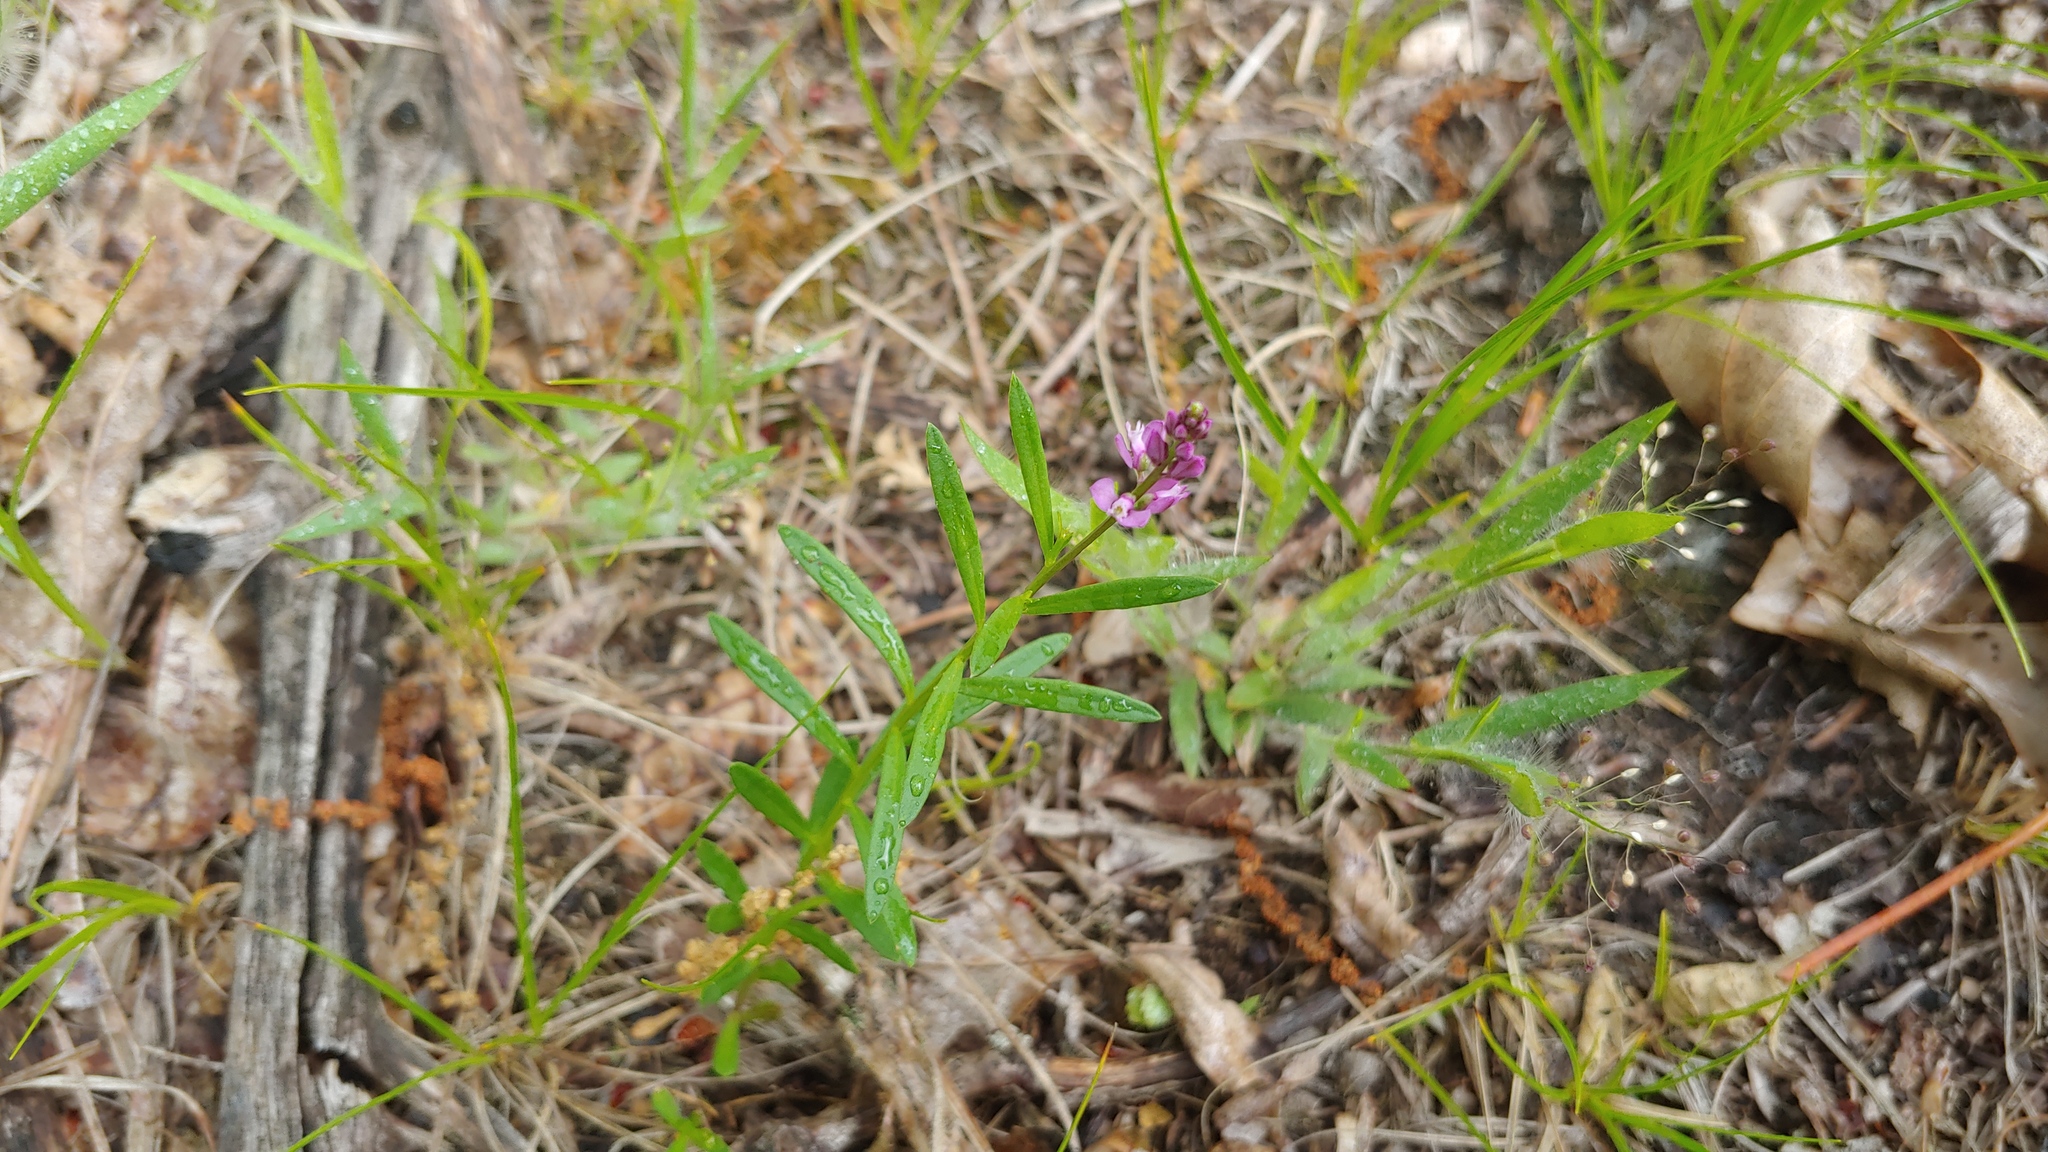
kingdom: Plantae
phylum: Tracheophyta
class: Magnoliopsida
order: Fabales
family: Polygalaceae
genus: Polygala
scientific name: Polygala polygama
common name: Bitter milkwort
